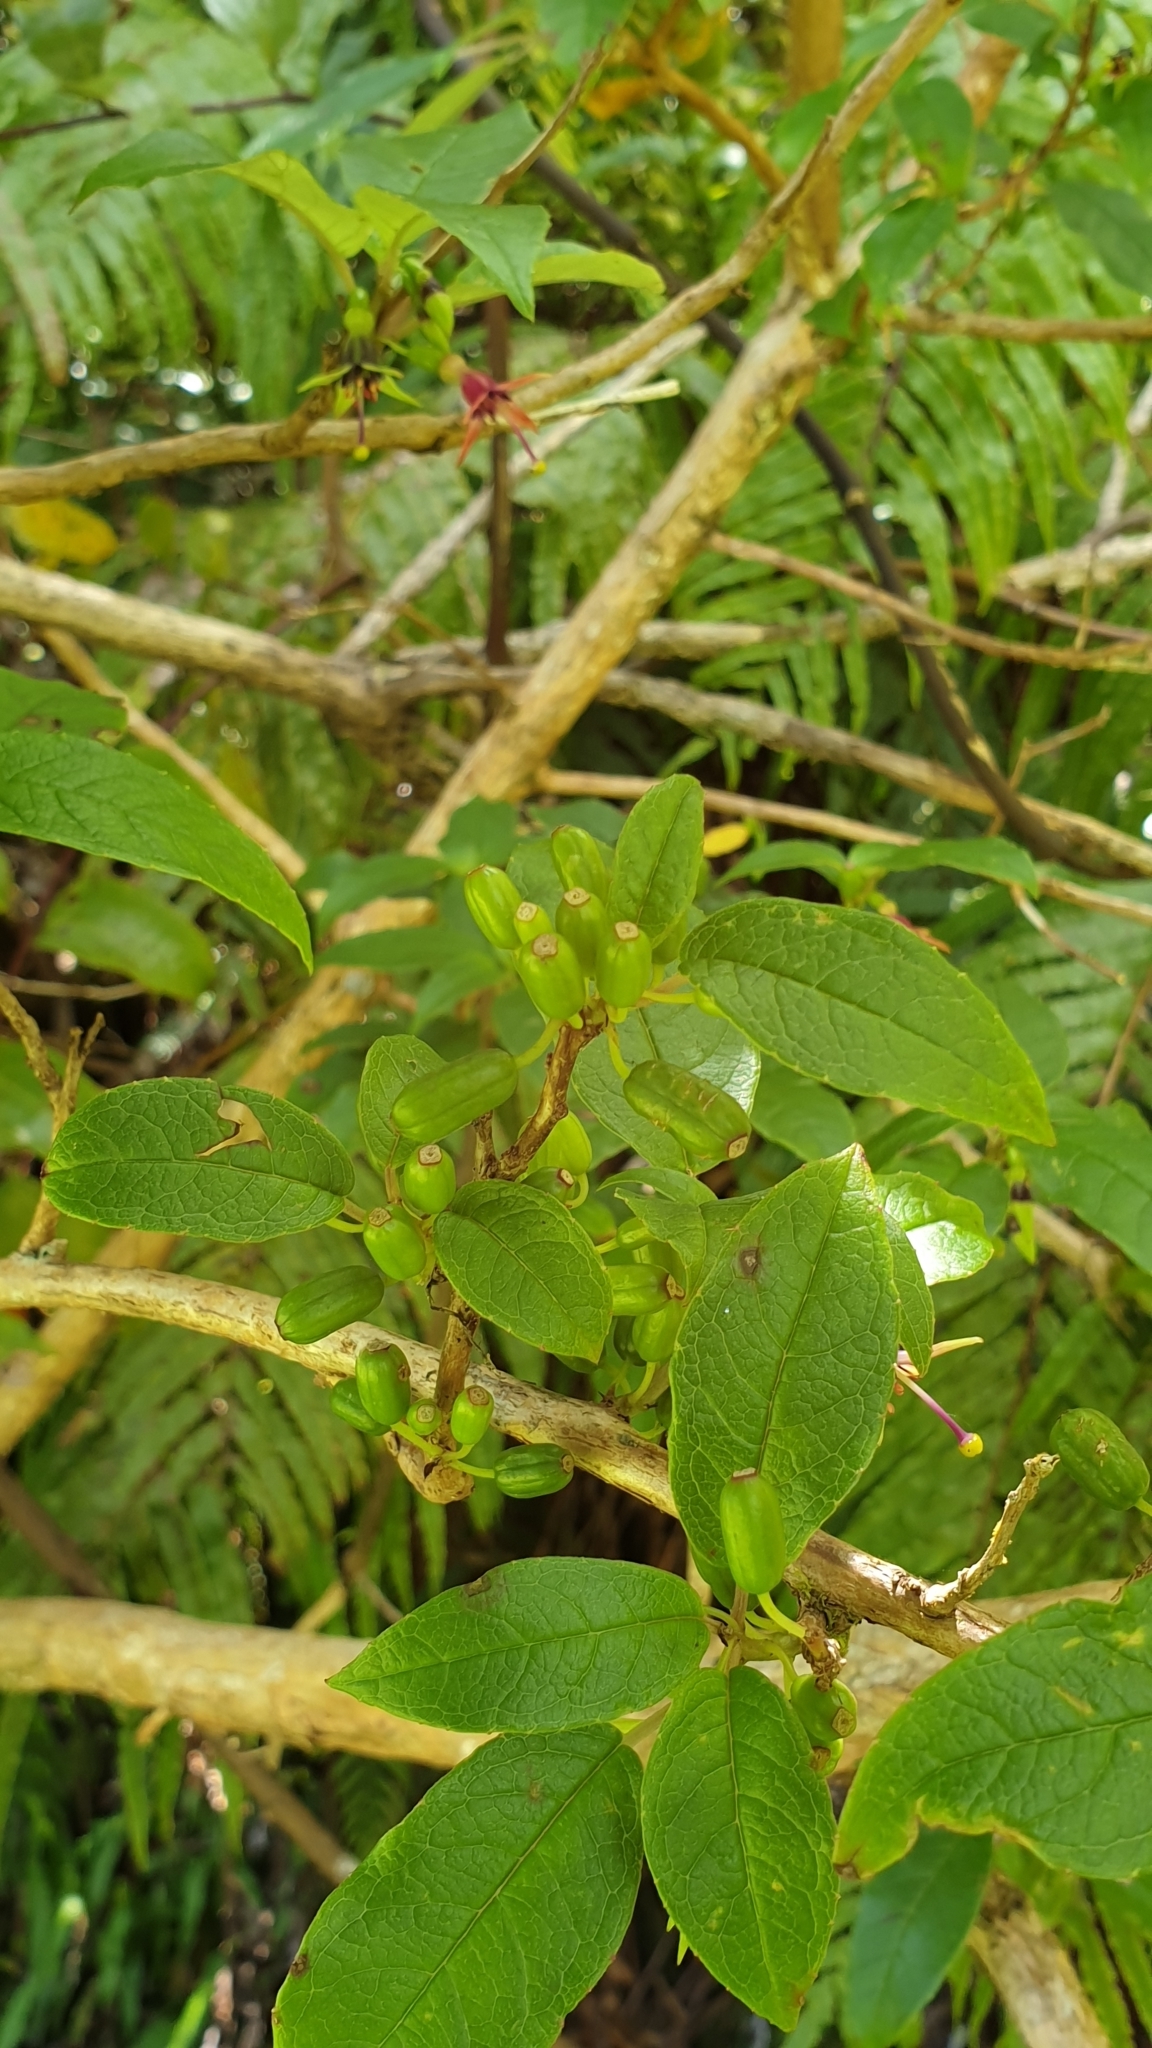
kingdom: Plantae
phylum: Tracheophyta
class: Magnoliopsida
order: Myrtales
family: Onagraceae
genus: Fuchsia
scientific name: Fuchsia excorticata
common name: Tree fuchsia
